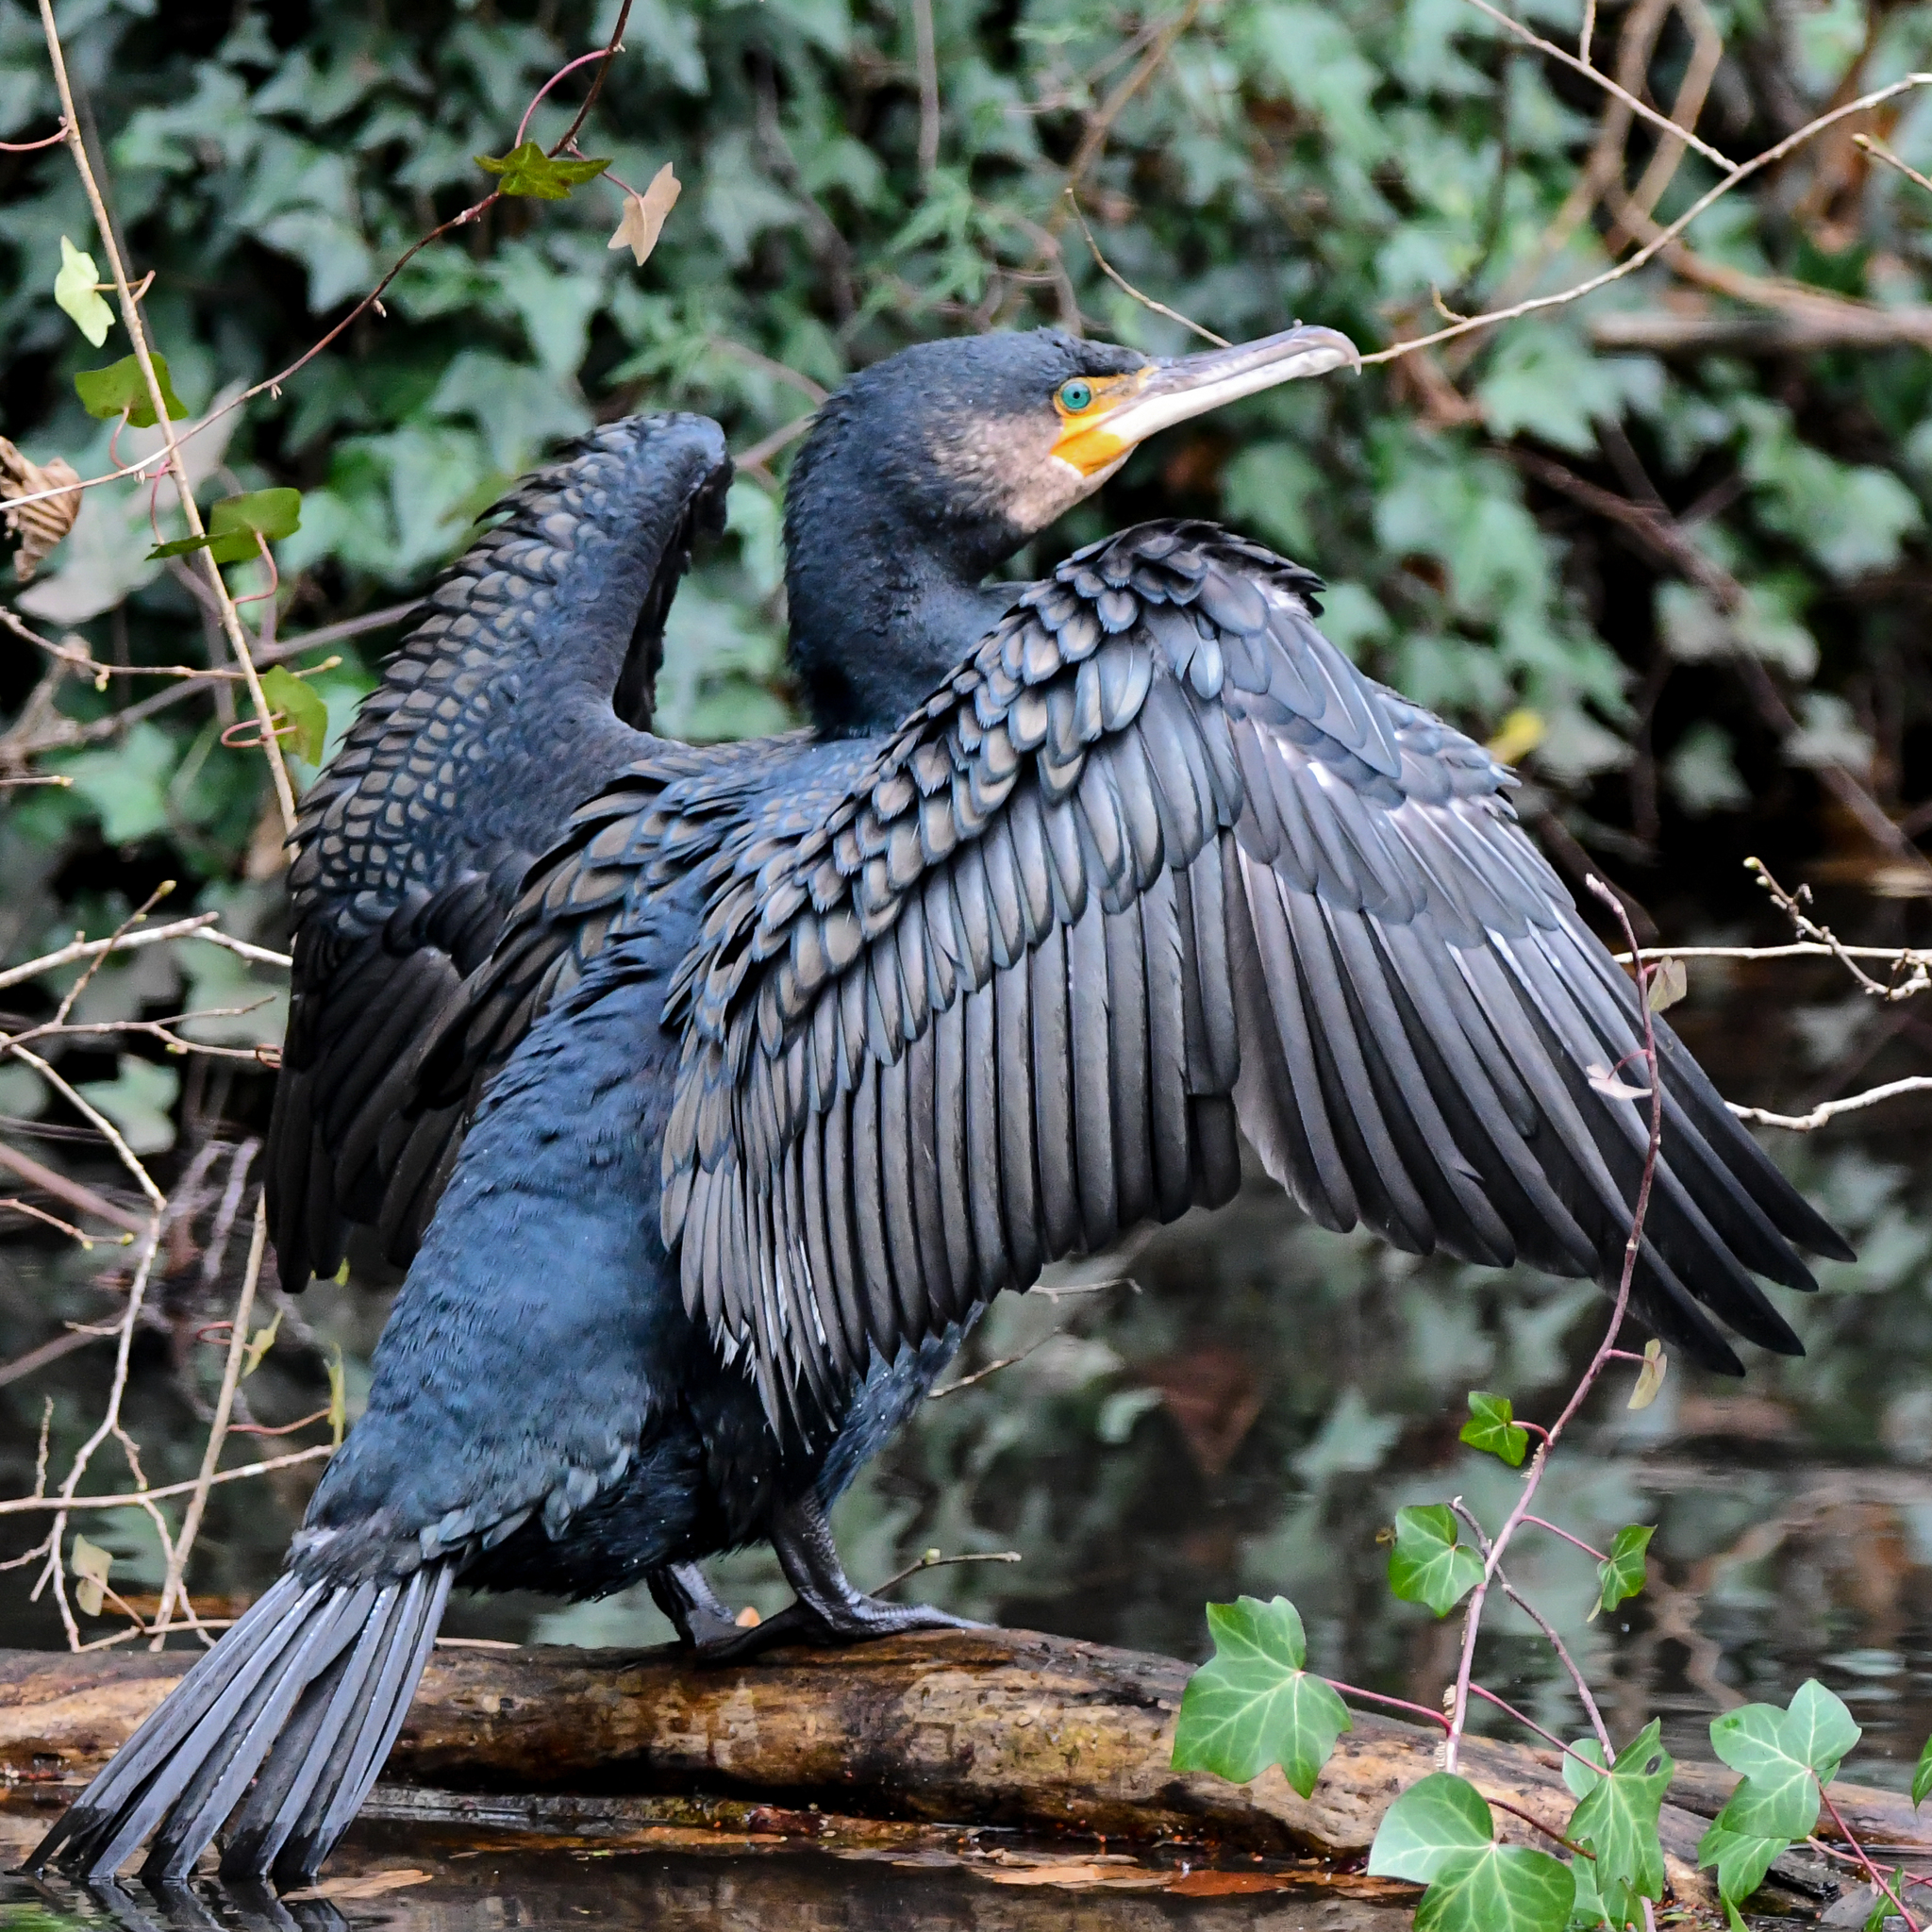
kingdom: Animalia
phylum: Chordata
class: Aves
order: Suliformes
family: Phalacrocoracidae
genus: Phalacrocorax
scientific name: Phalacrocorax carbo
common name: Great cormorant
